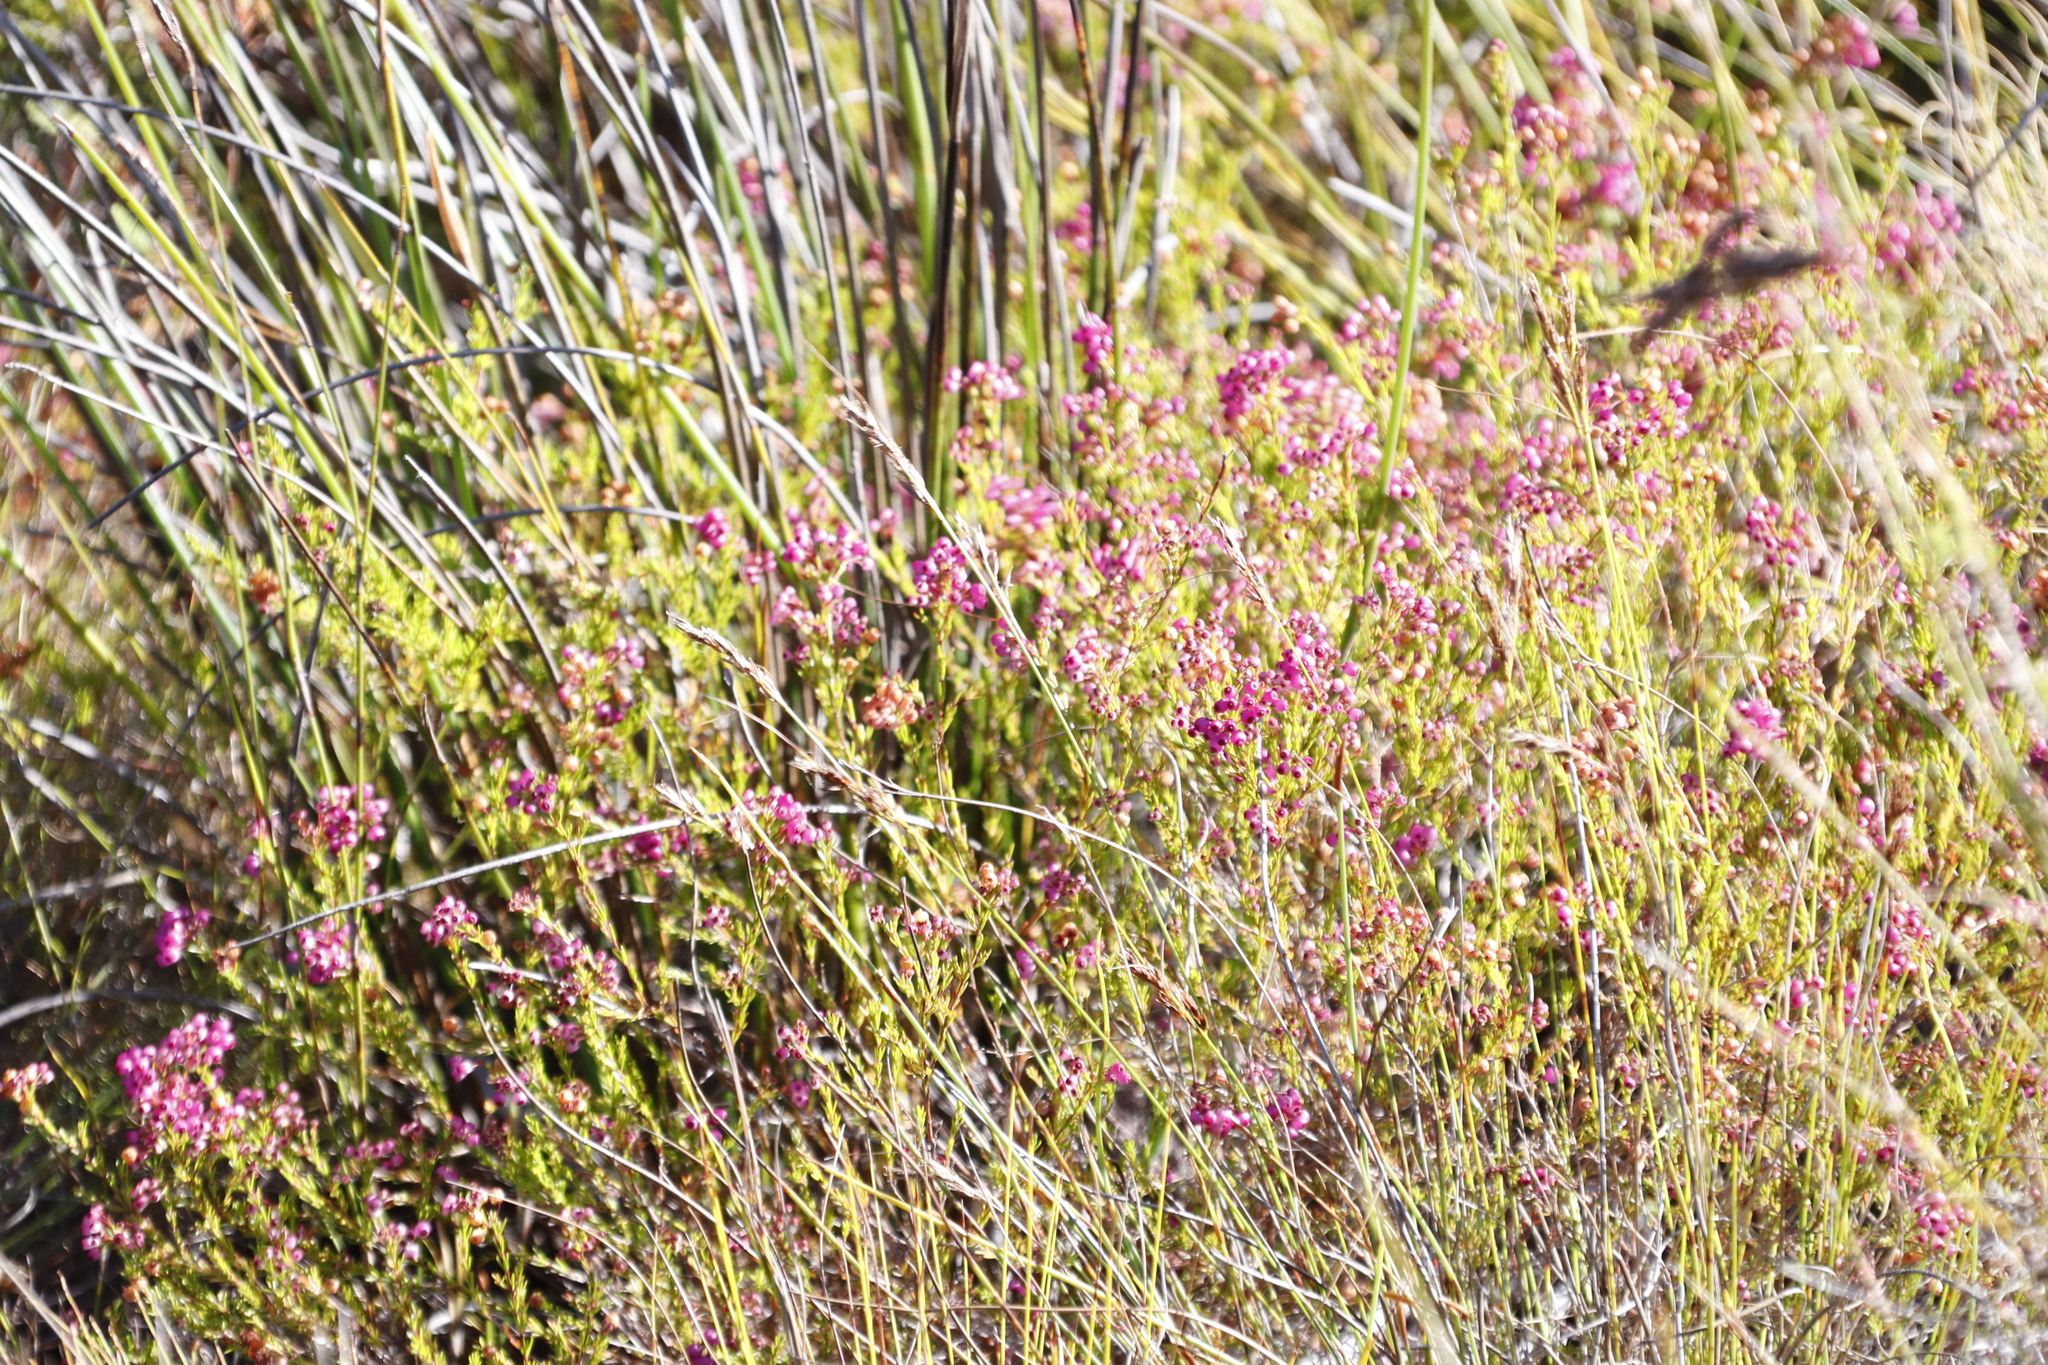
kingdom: Plantae
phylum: Tracheophyta
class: Magnoliopsida
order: Ericales
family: Ericaceae
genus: Erica
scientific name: Erica multumbellifera
